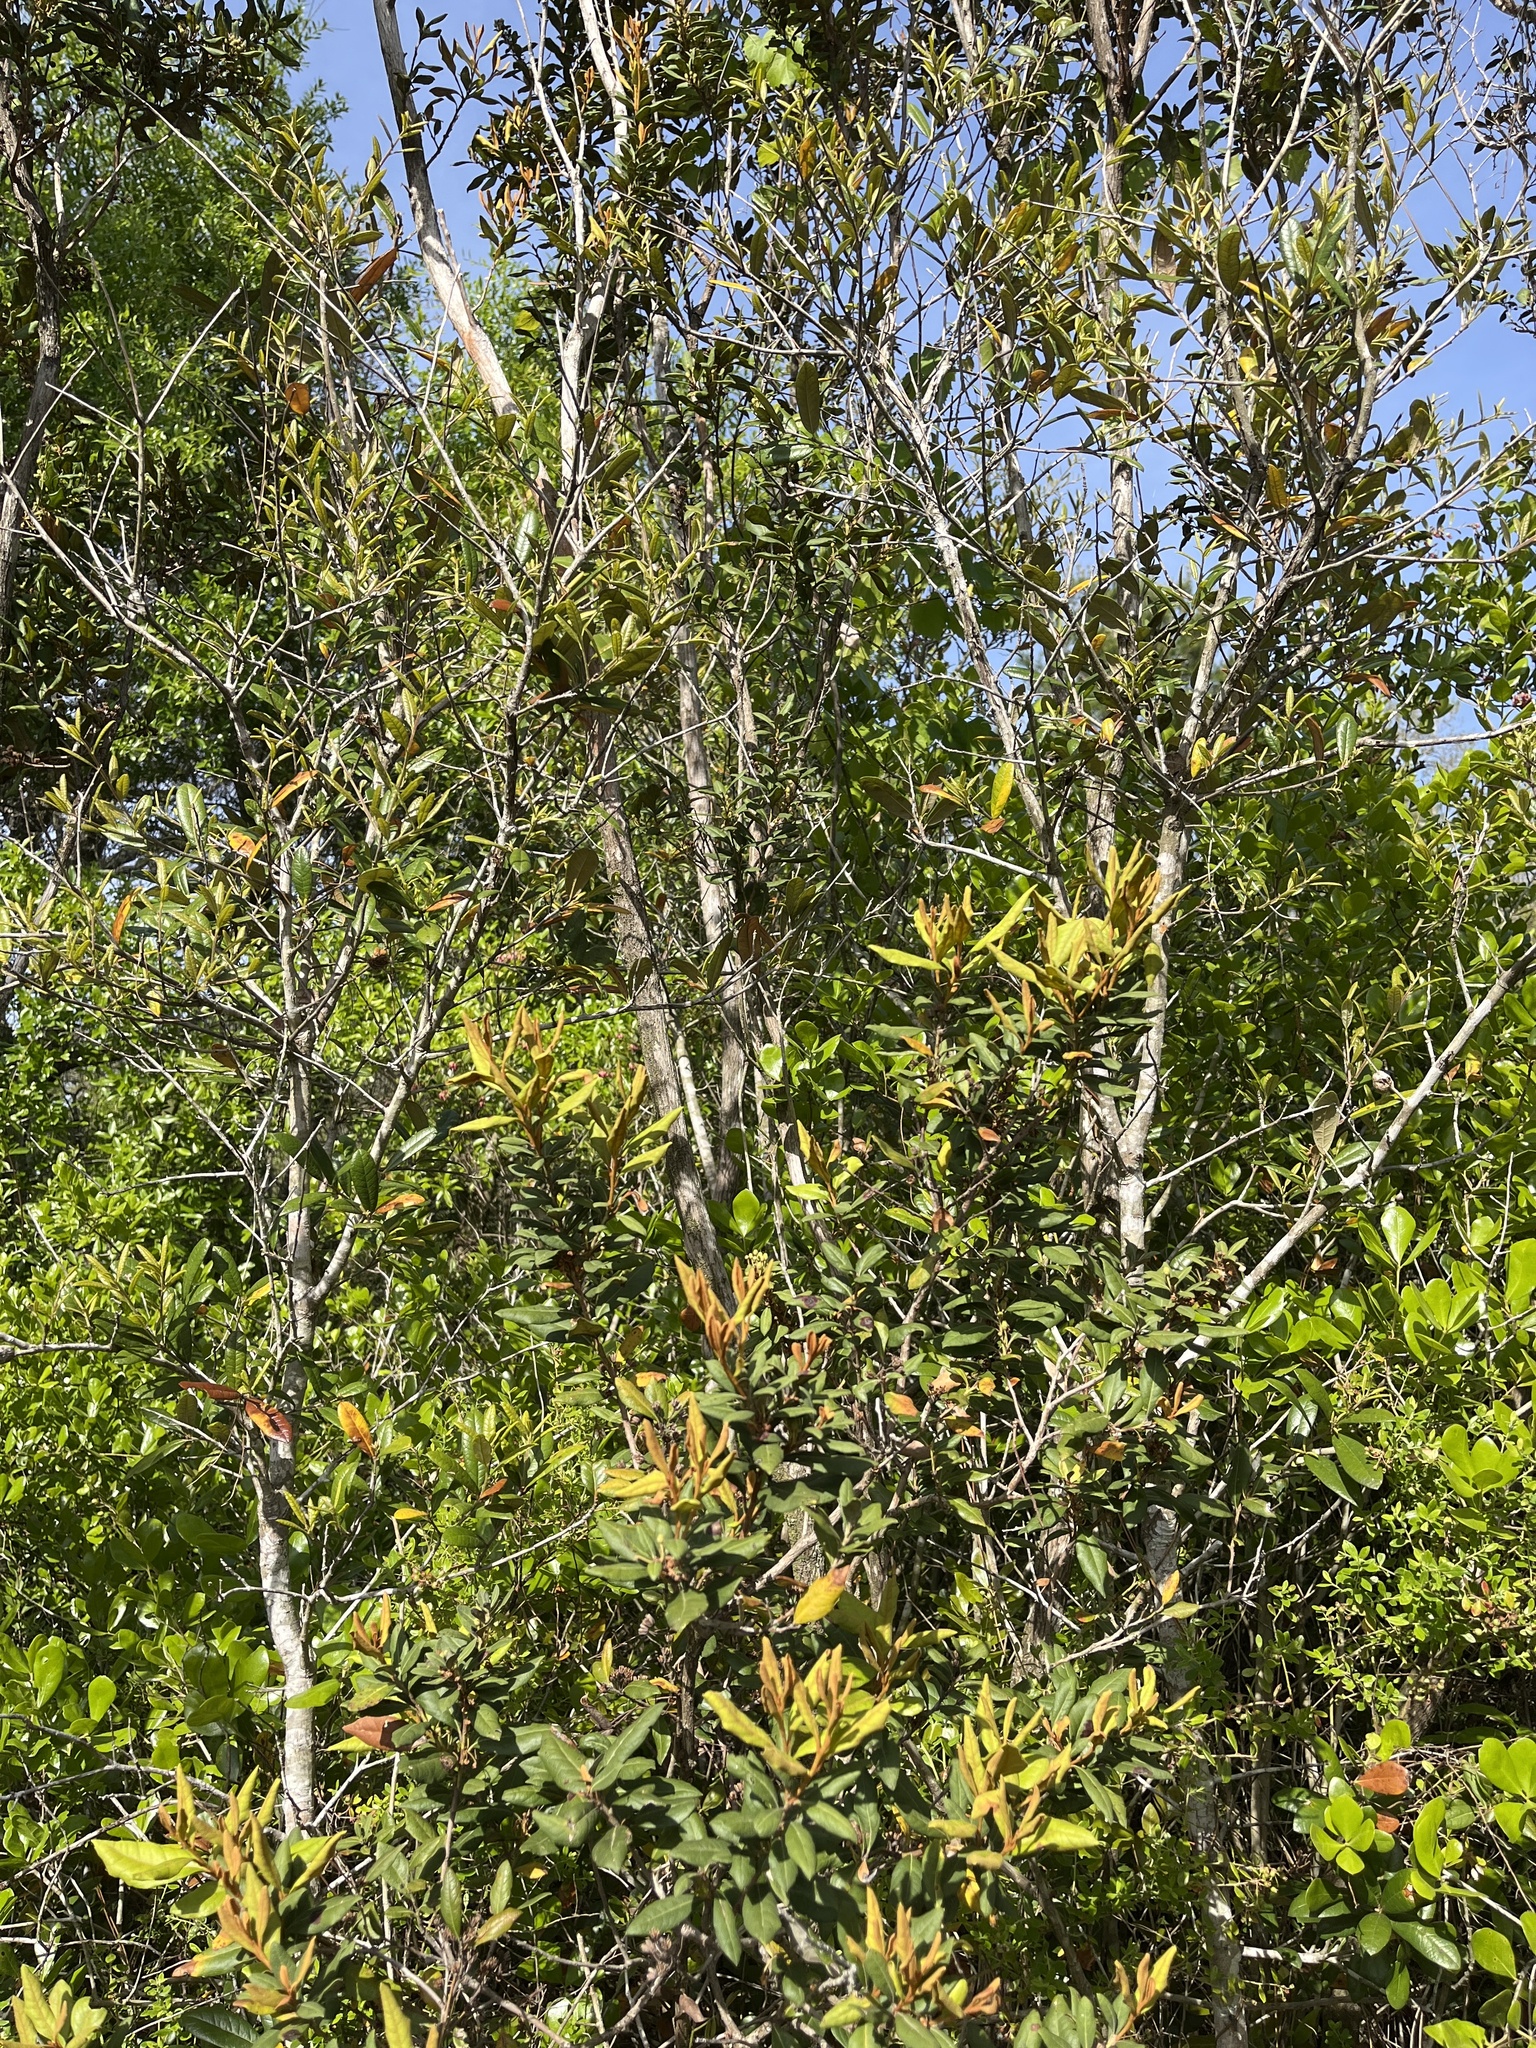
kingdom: Plantae
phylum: Tracheophyta
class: Magnoliopsida
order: Ericales
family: Ericaceae
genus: Lyonia
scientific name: Lyonia ferruginea
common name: Rusty lyonia
